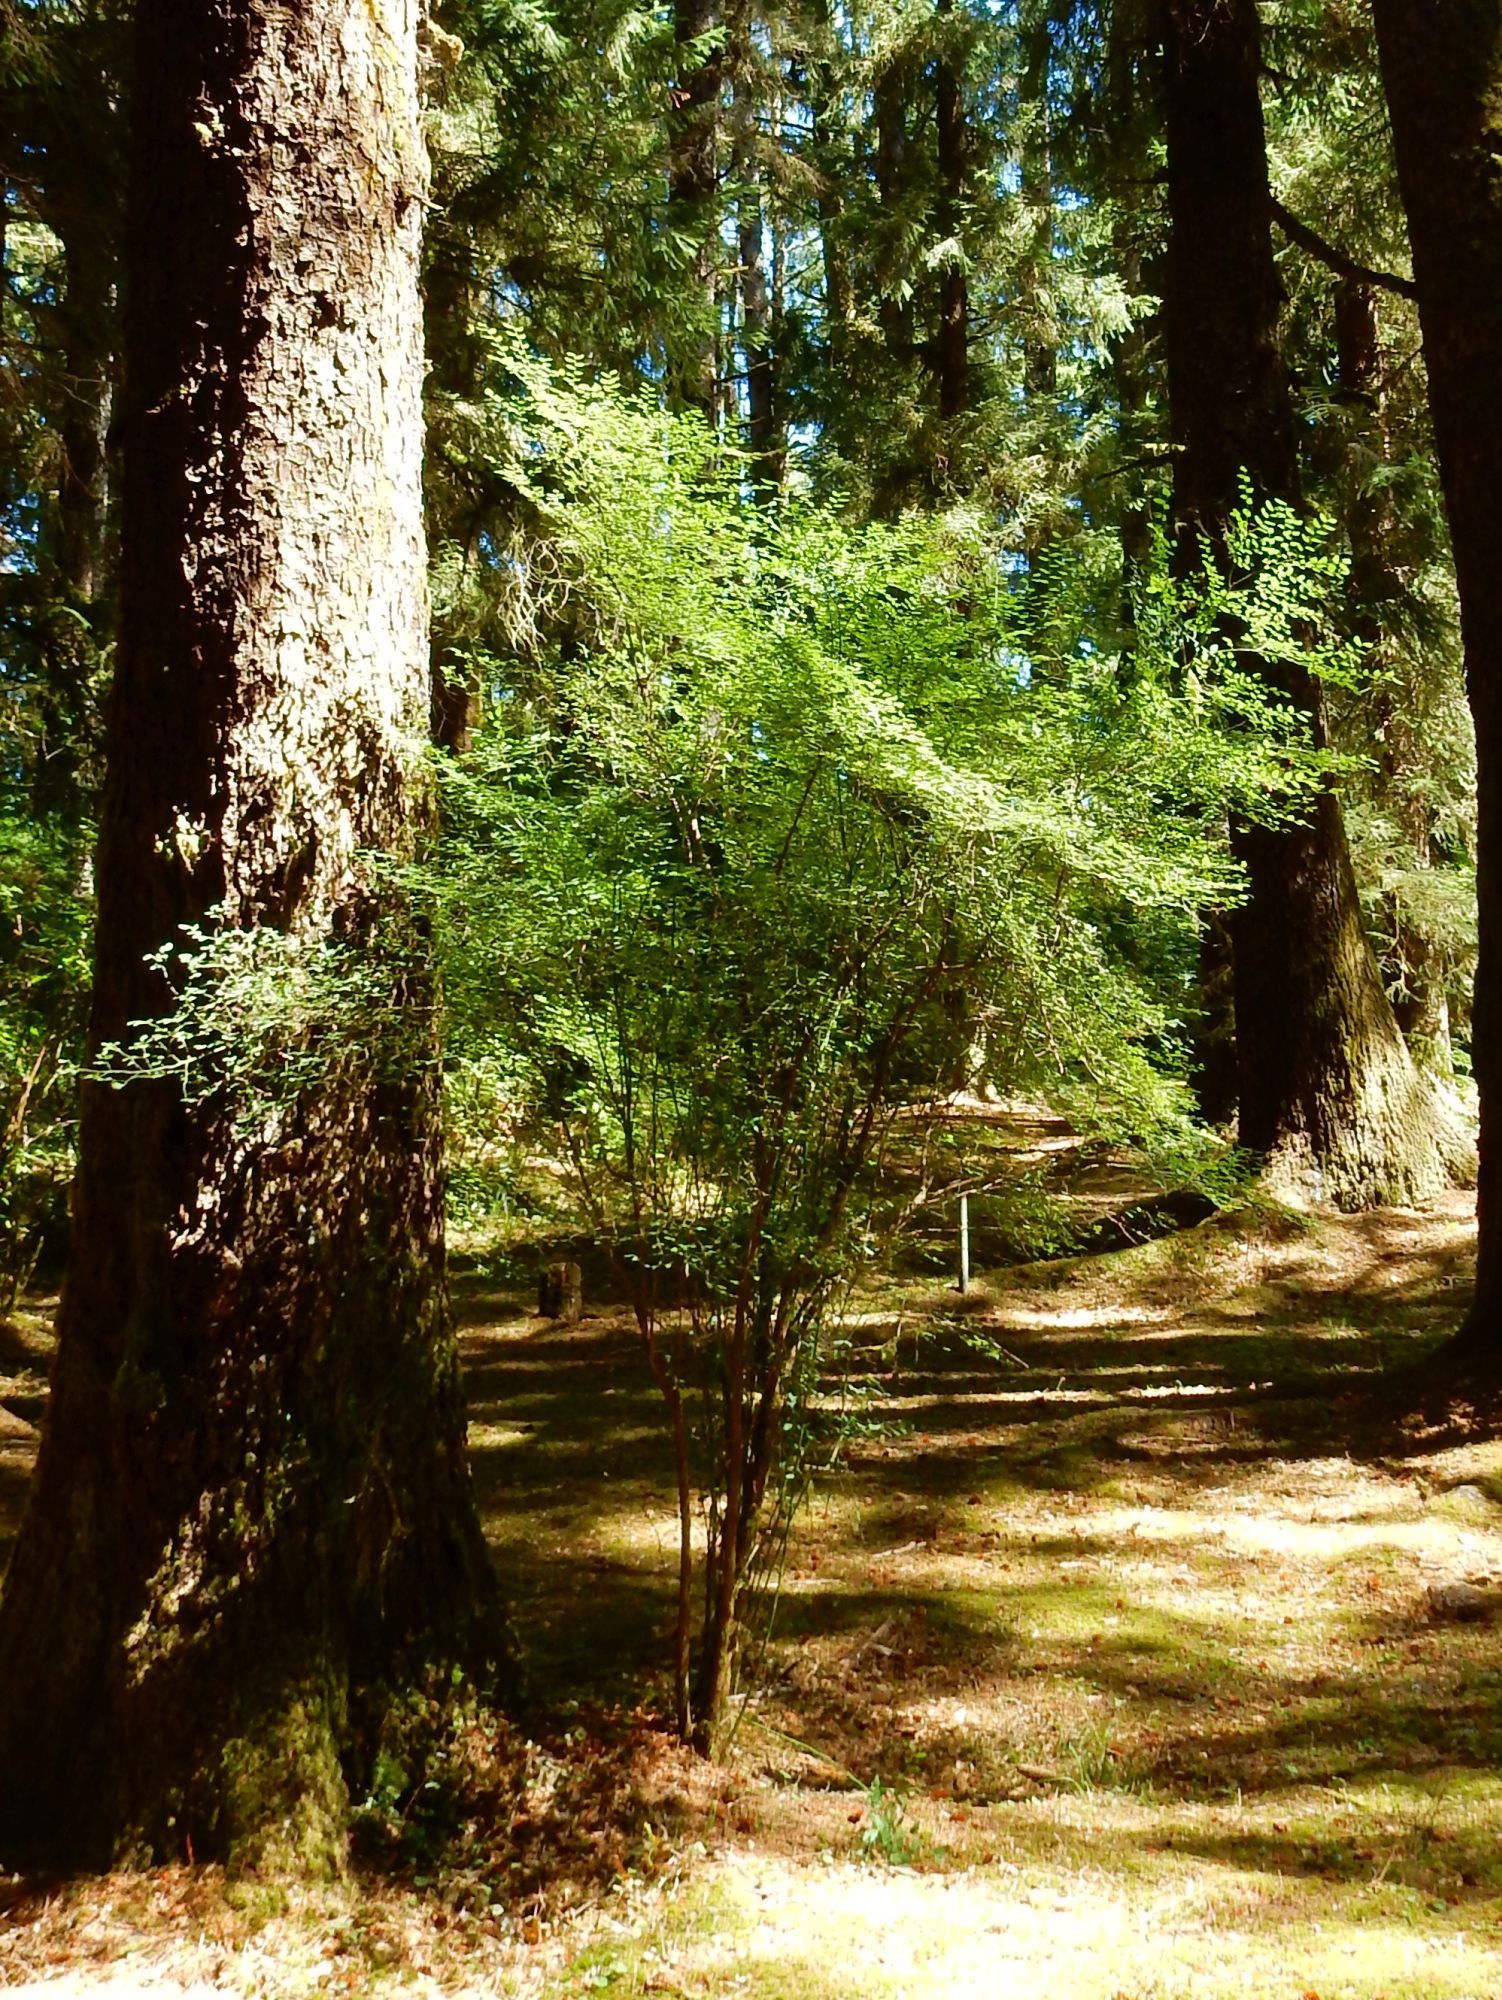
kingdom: Plantae
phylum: Tracheophyta
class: Magnoliopsida
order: Ericales
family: Ericaceae
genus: Vaccinium
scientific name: Vaccinium parvifolium
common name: Red-huckleberry
